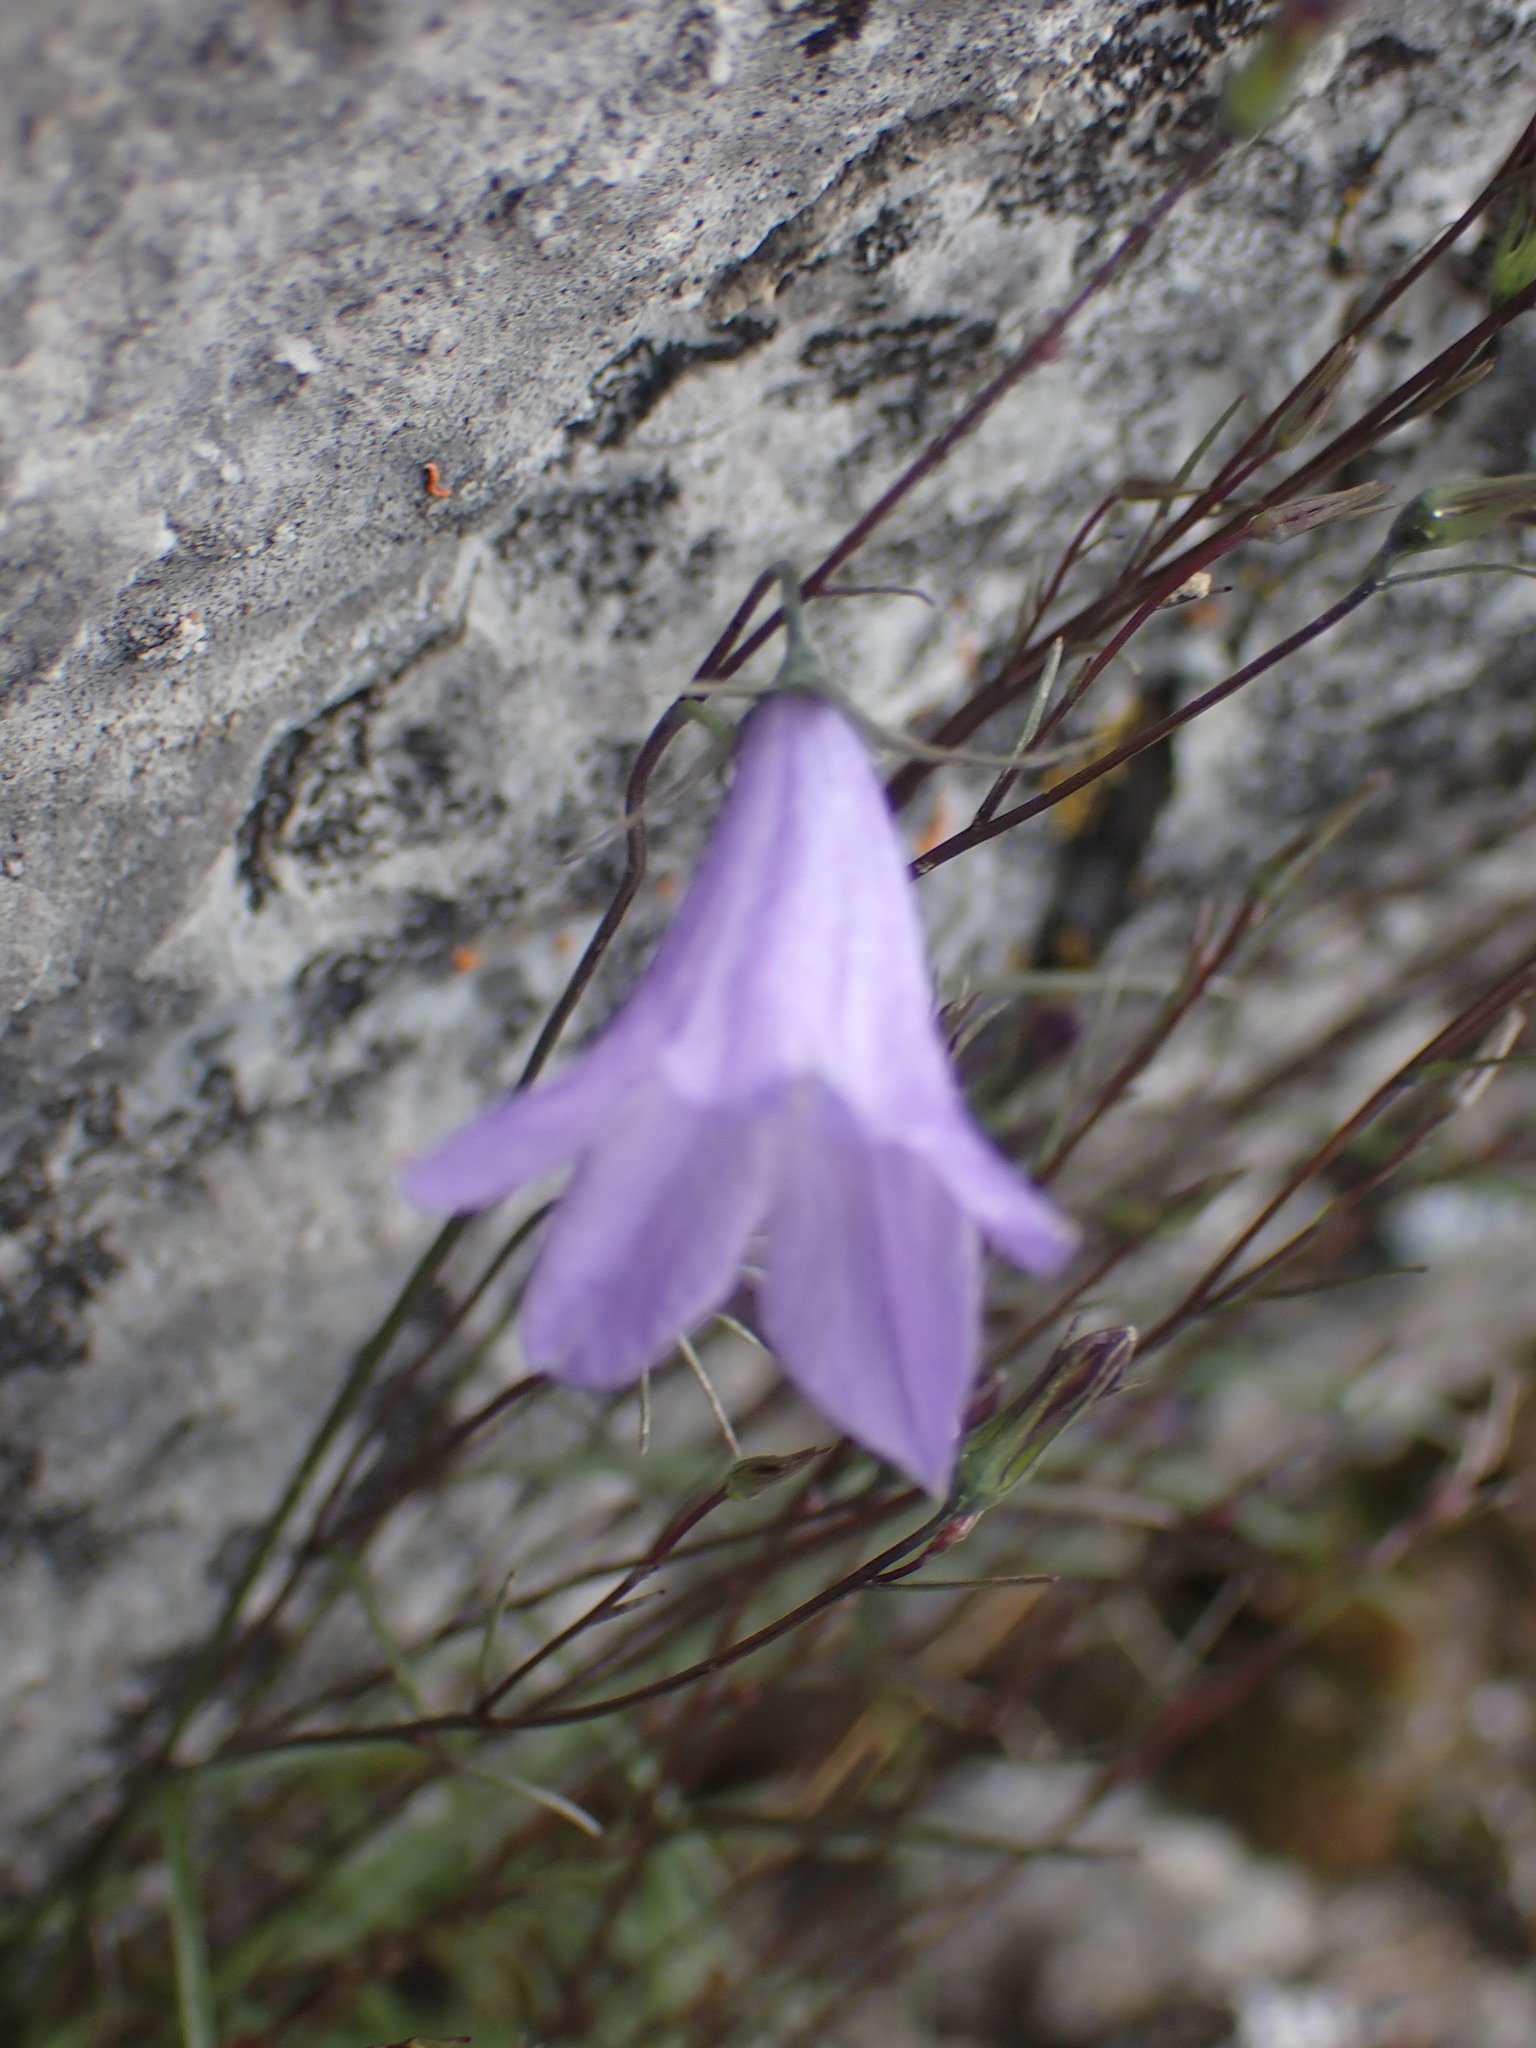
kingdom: Plantae
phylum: Tracheophyta
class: Magnoliopsida
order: Asterales
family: Campanulaceae
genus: Campanula
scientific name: Campanula alaskana
